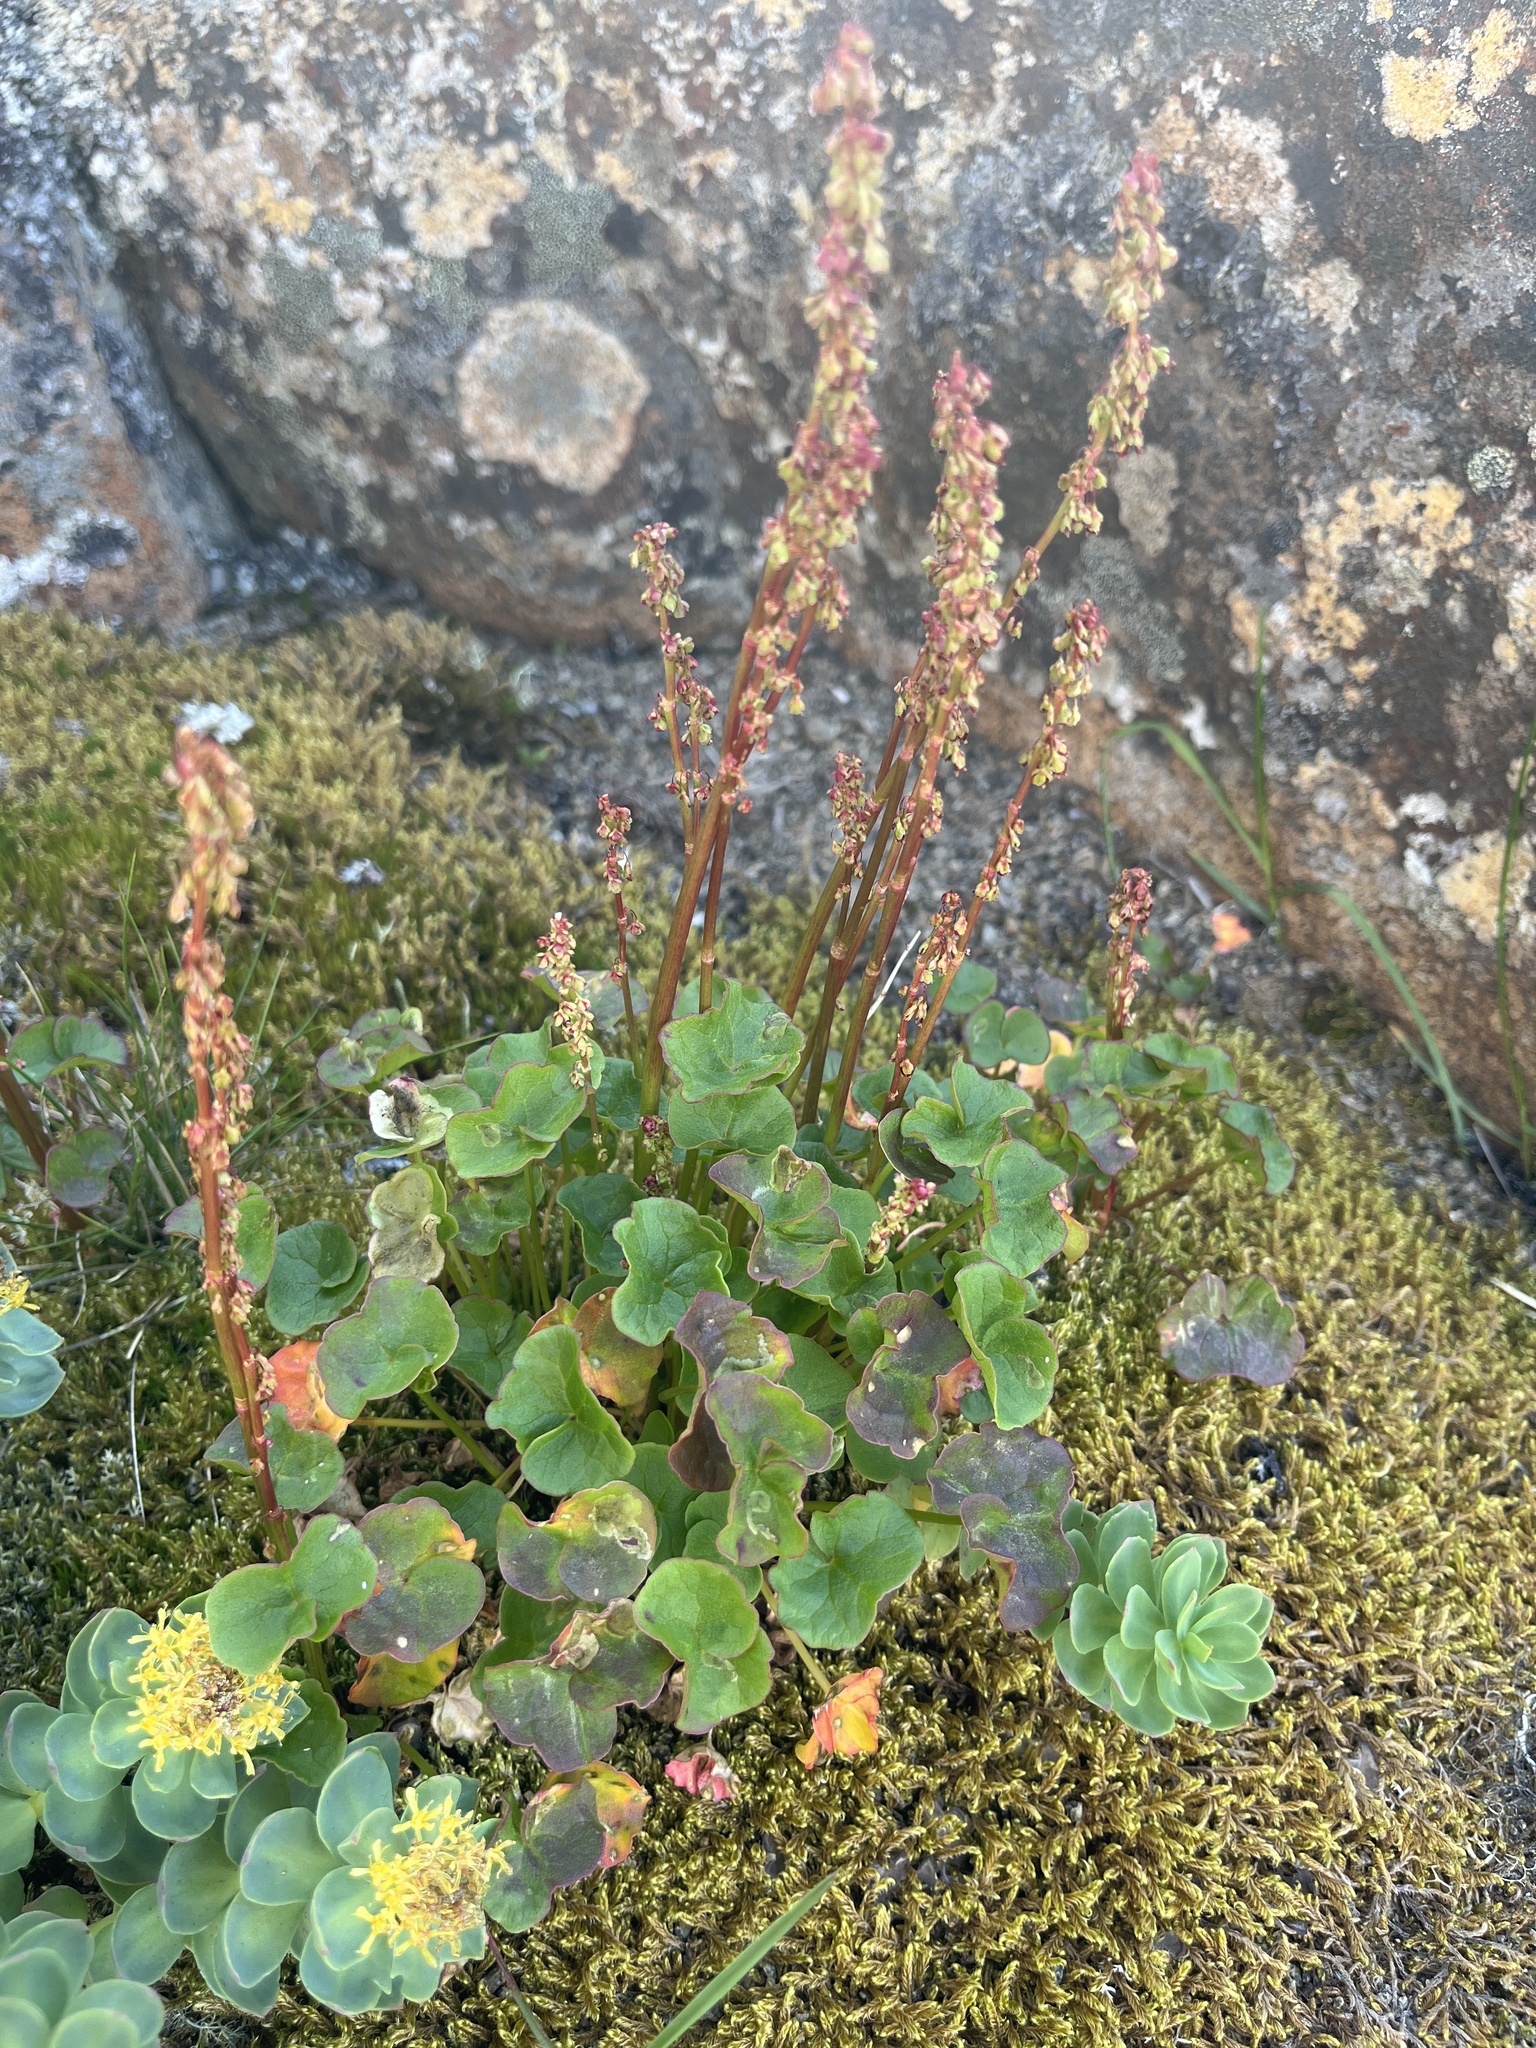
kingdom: Plantae
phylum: Tracheophyta
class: Magnoliopsida
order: Caryophyllales
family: Polygonaceae
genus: Oxyria
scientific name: Oxyria digyna
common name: Alpine mountain-sorrel
